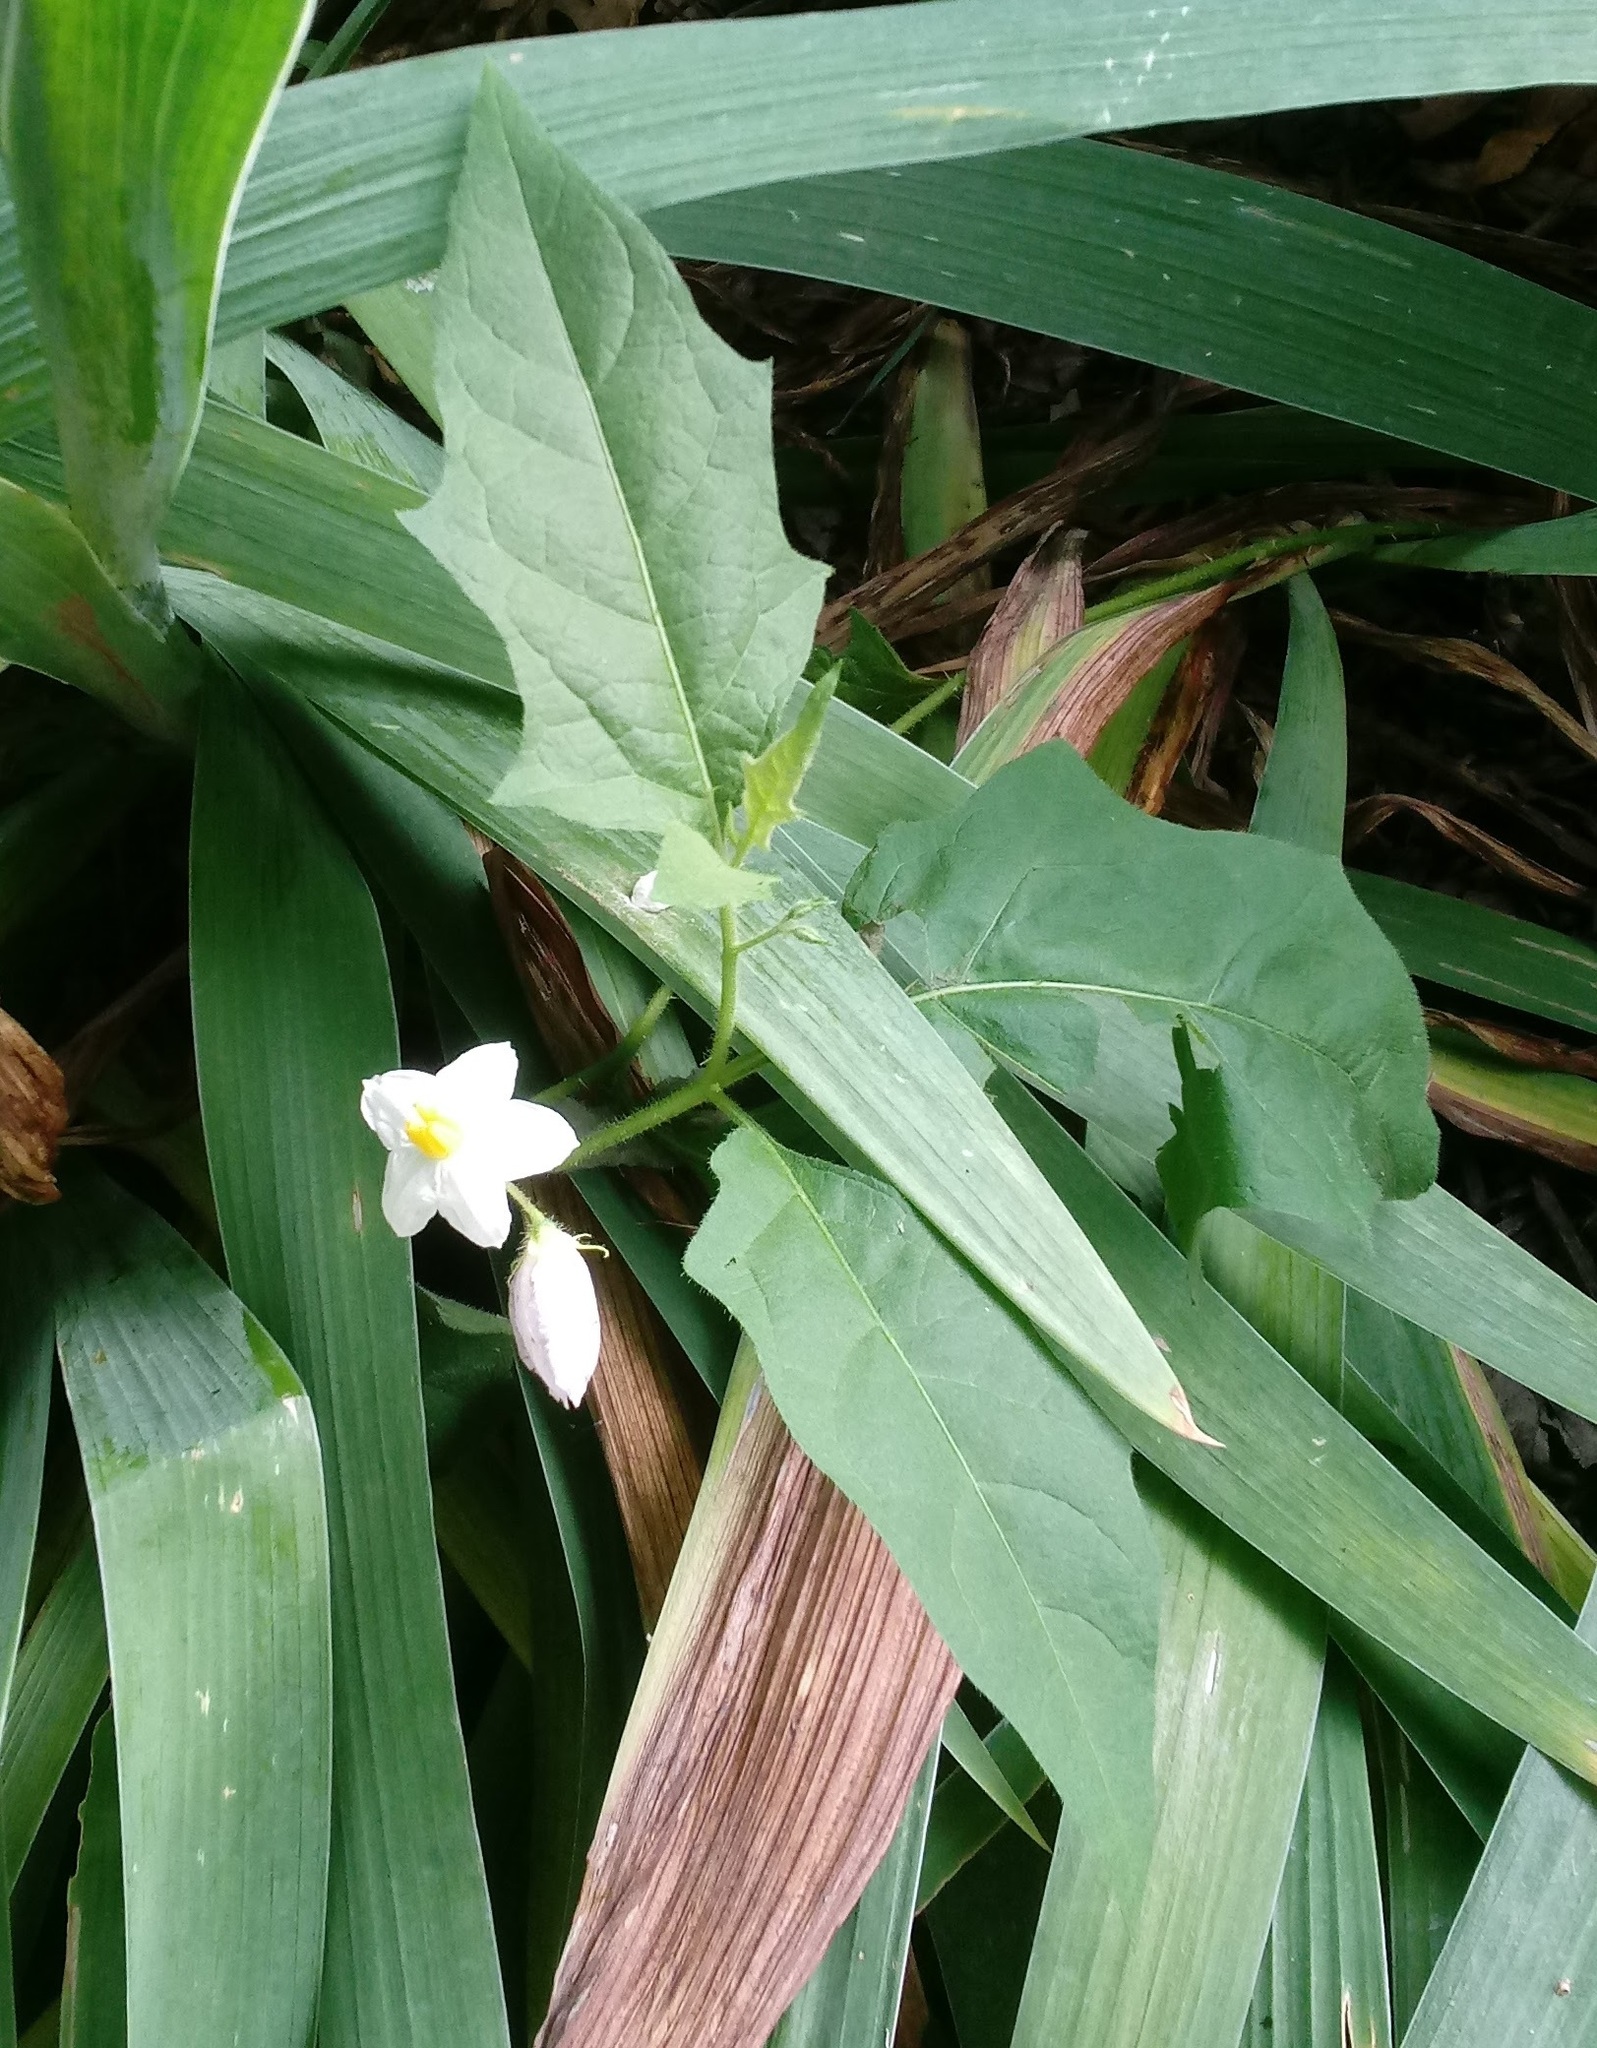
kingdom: Plantae
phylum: Tracheophyta
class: Magnoliopsida
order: Solanales
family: Solanaceae
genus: Solanum
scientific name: Solanum carolinense
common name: Horse-nettle
